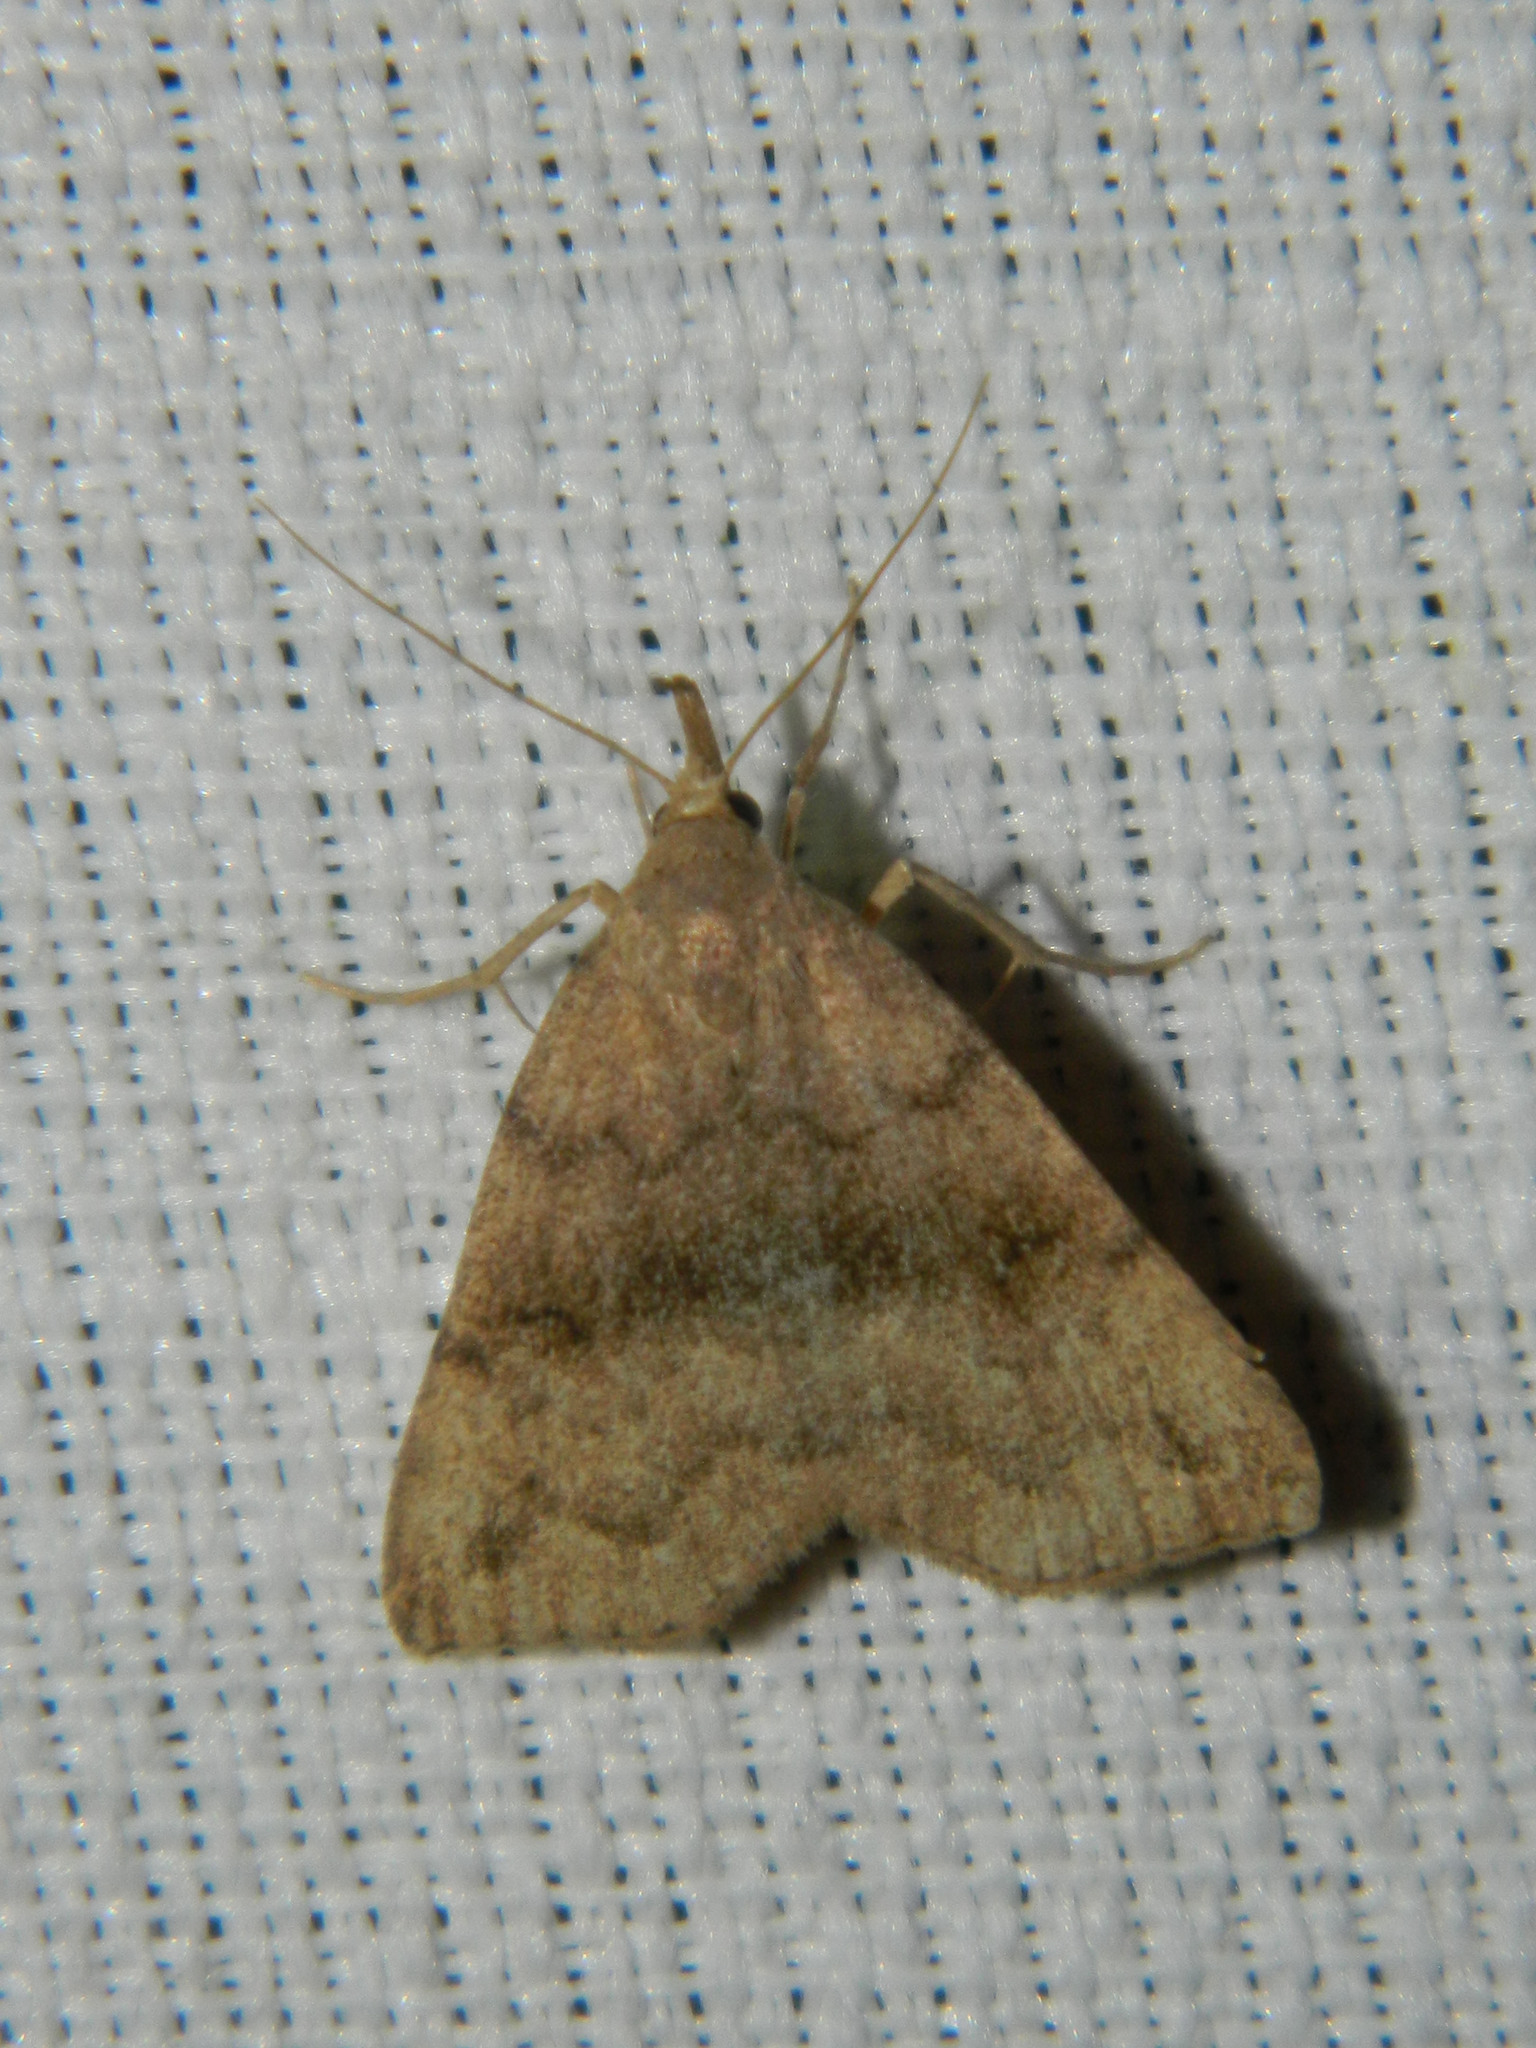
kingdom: Animalia
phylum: Arthropoda
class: Insecta
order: Lepidoptera
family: Erebidae
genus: Phalaenostola
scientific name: Phalaenostola eumelusalis
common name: Dark phalaenostola moth
